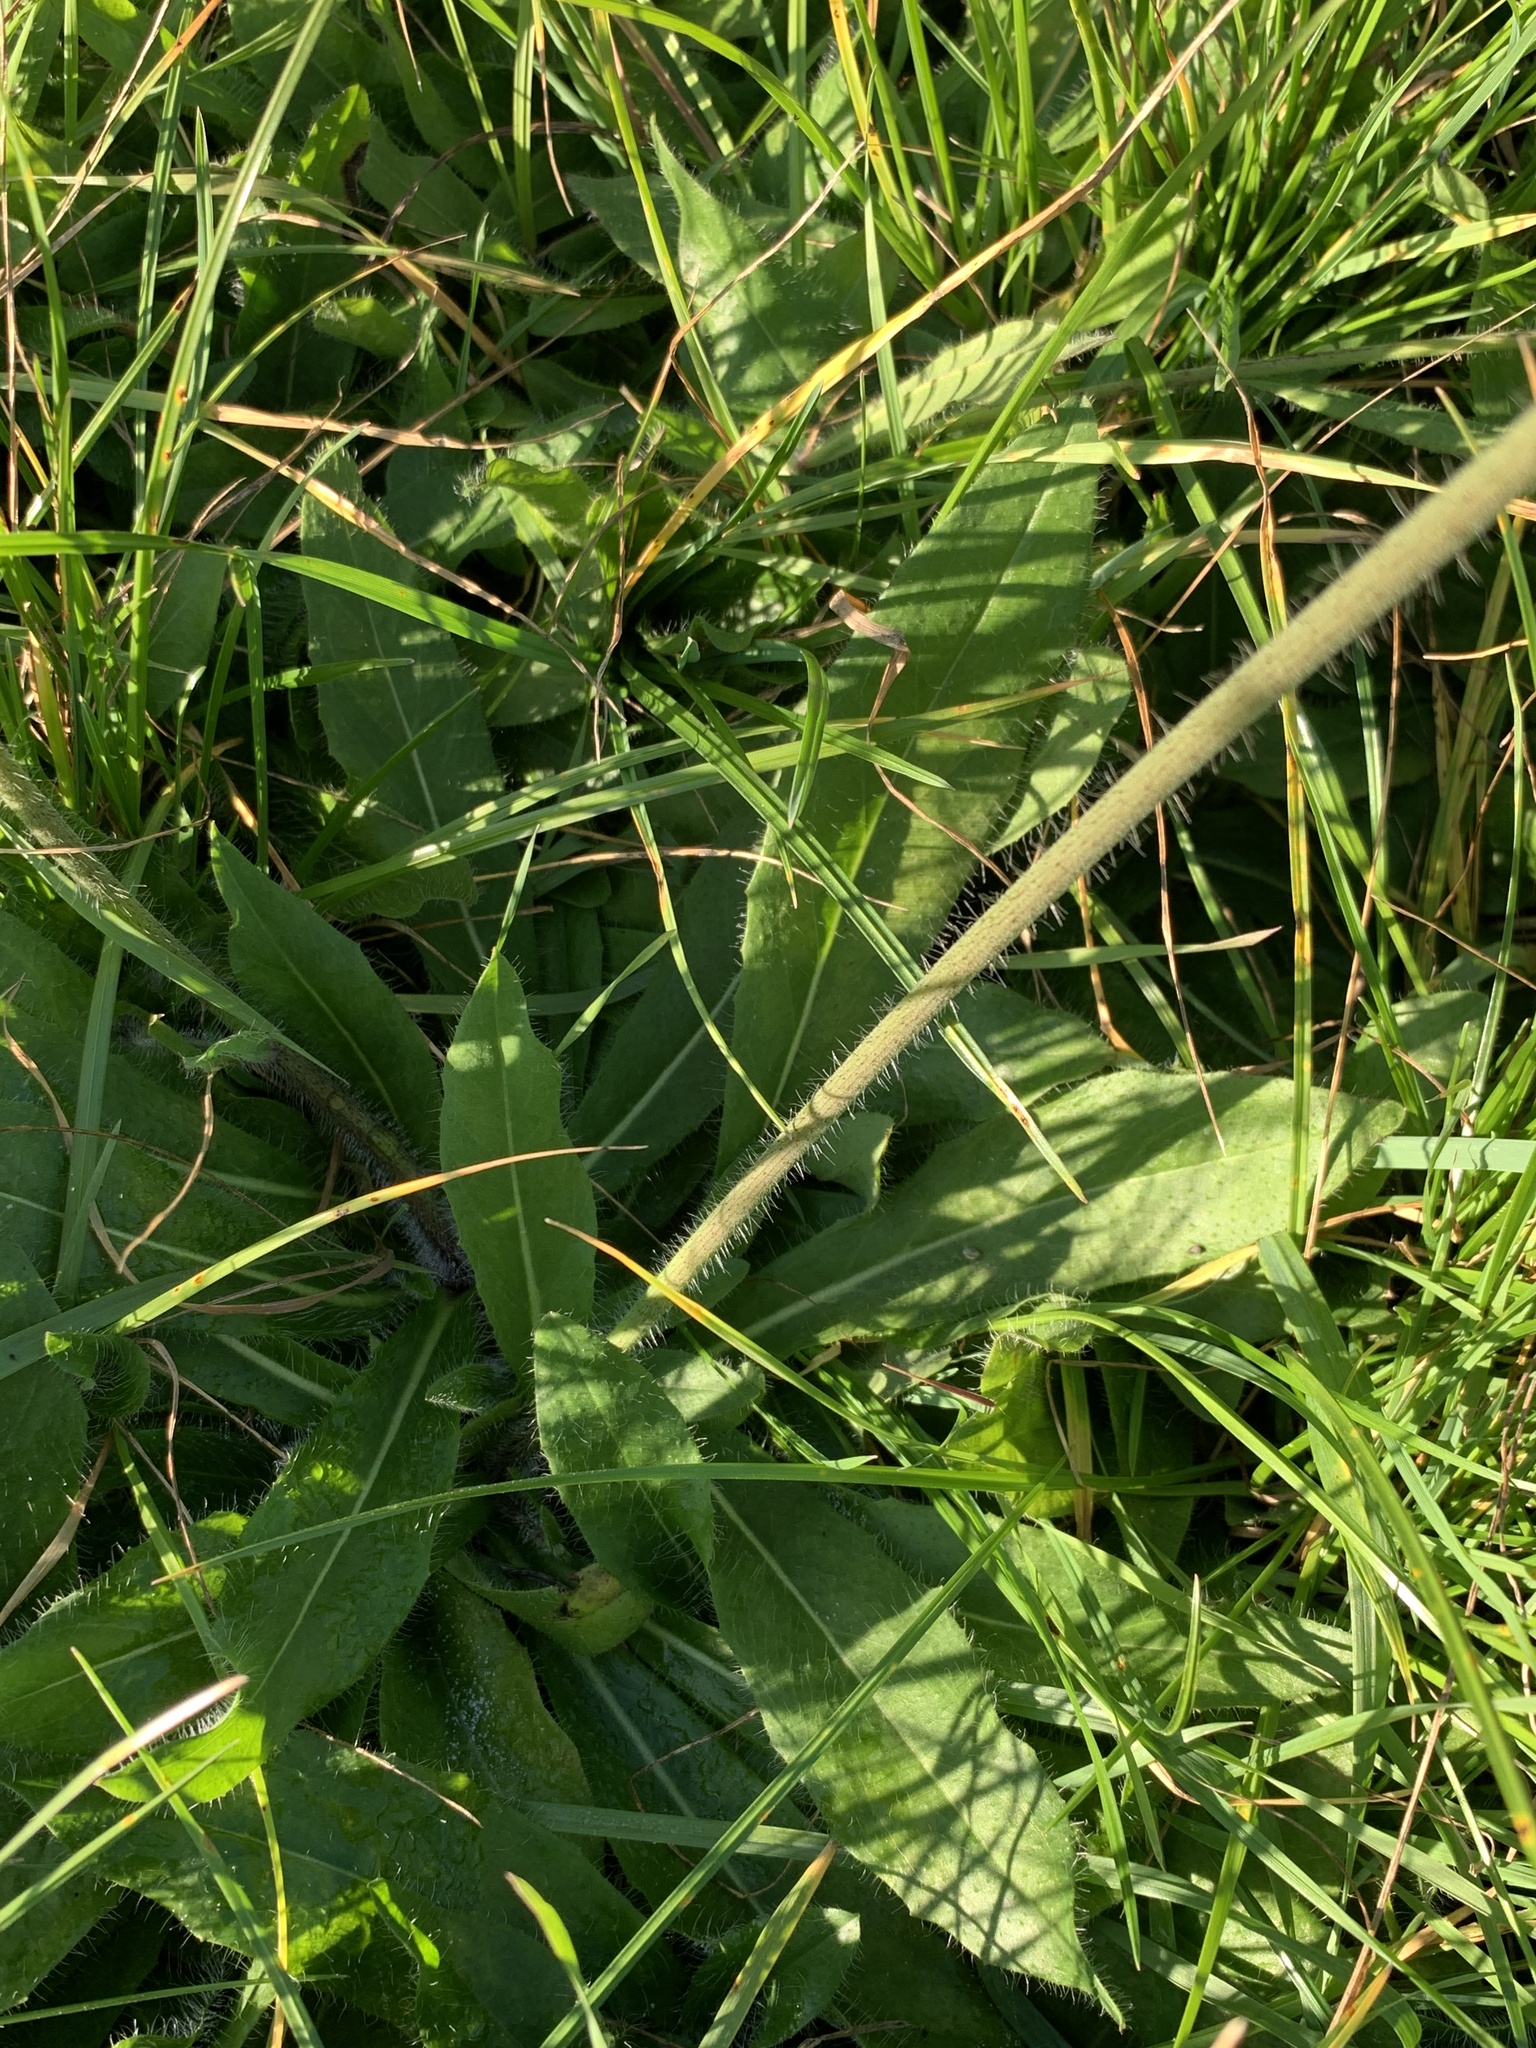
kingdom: Plantae
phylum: Tracheophyta
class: Magnoliopsida
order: Asterales
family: Asteraceae
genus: Pilosella
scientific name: Pilosella caespitosa
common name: Yellow fox-and-cubs
